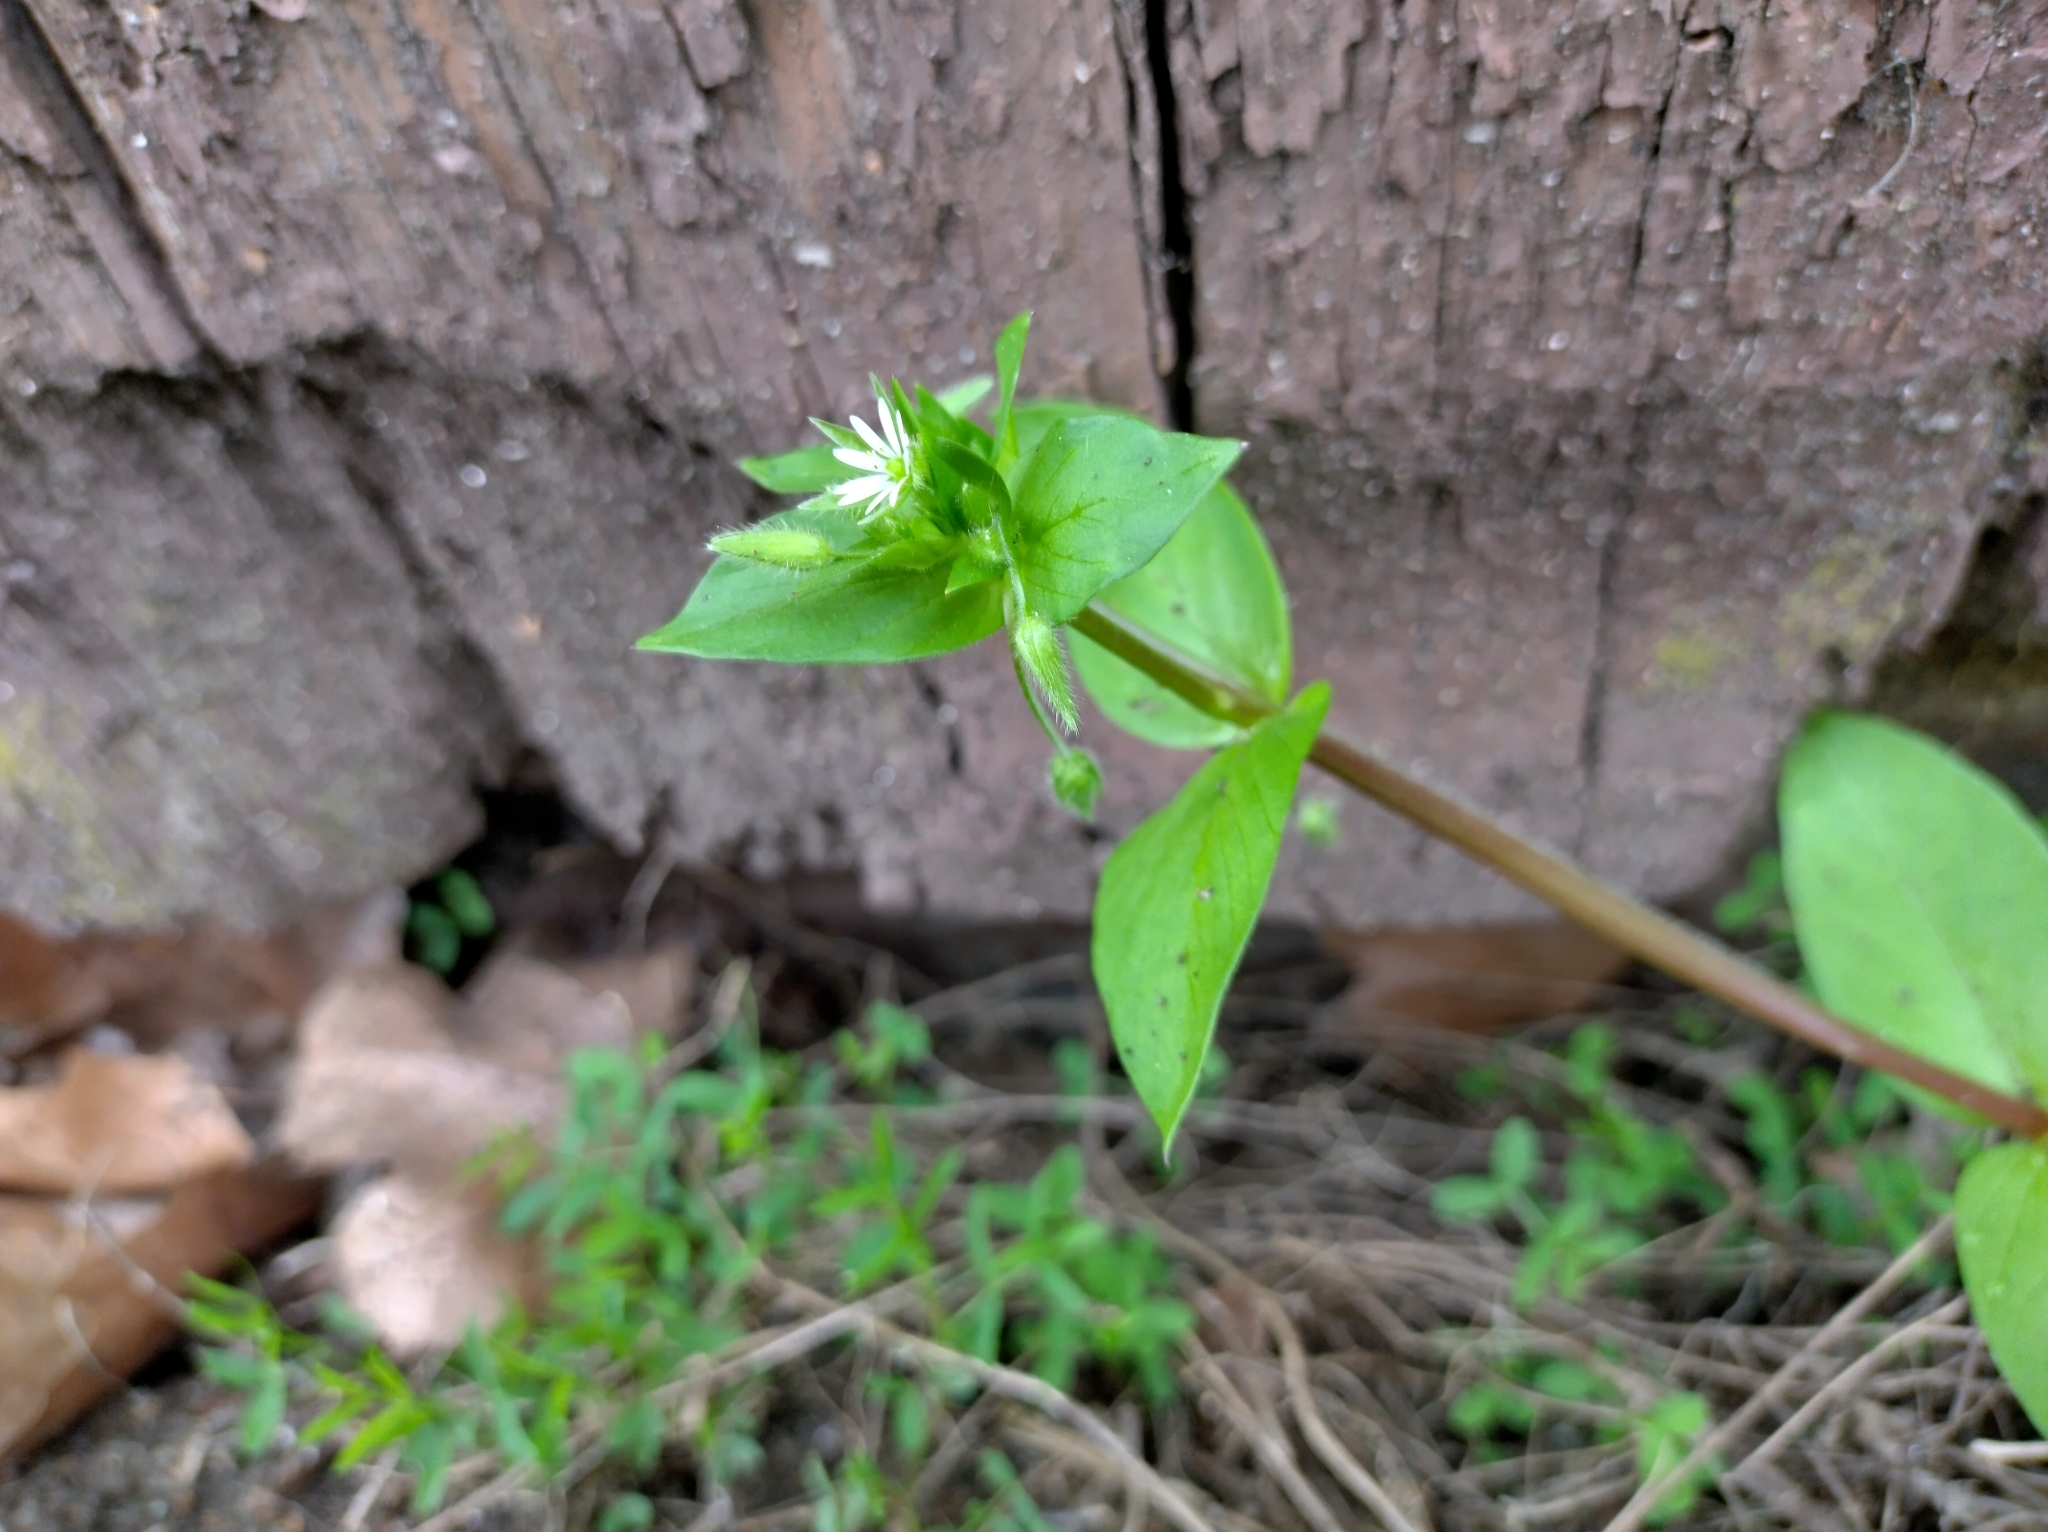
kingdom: Plantae
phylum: Tracheophyta
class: Magnoliopsida
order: Caryophyllales
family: Caryophyllaceae
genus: Stellaria
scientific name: Stellaria media
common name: Common chickweed
